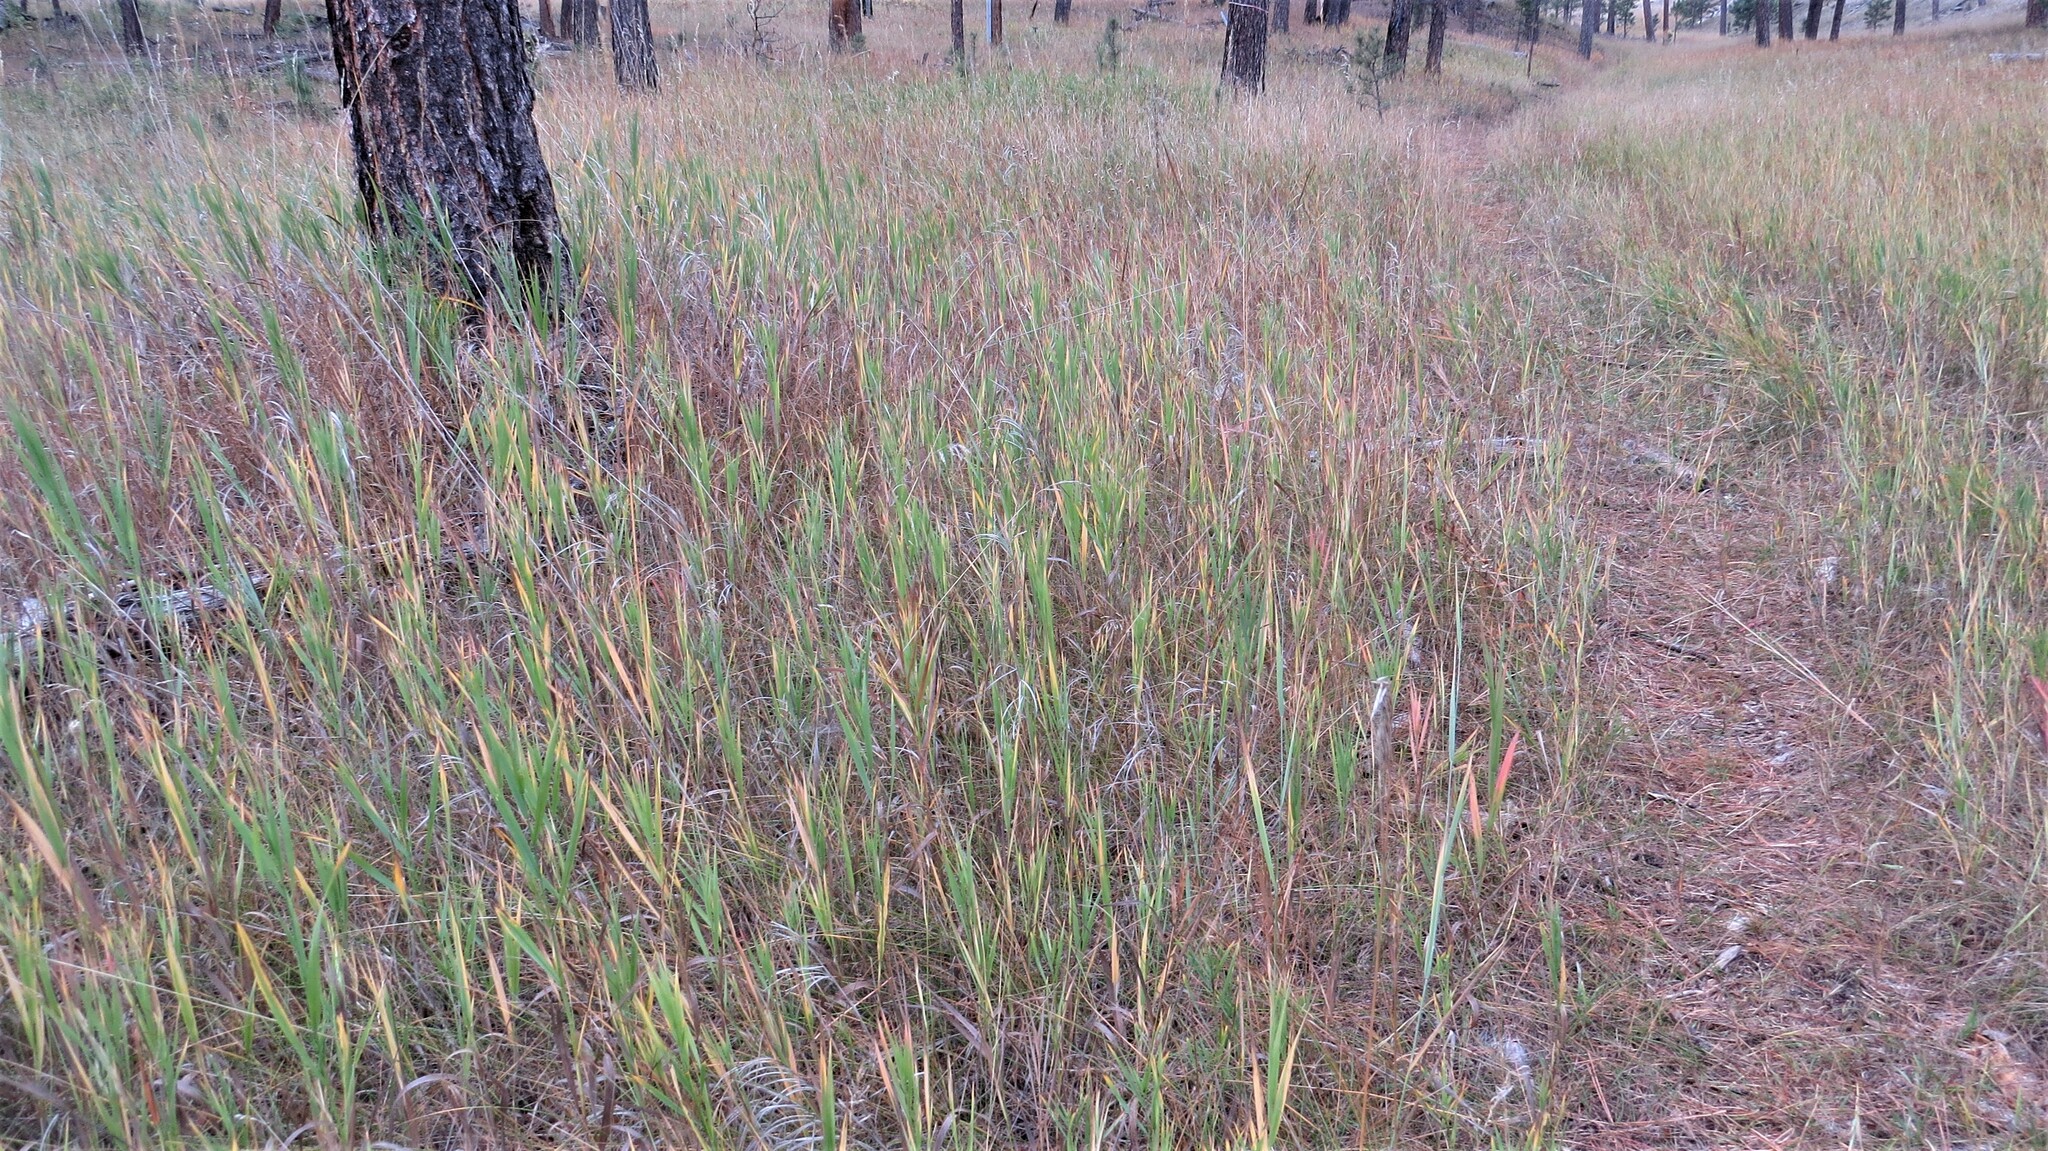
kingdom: Plantae
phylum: Tracheophyta
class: Liliopsida
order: Poales
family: Poaceae
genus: Bromus
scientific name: Bromus inermis
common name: Smooth brome
